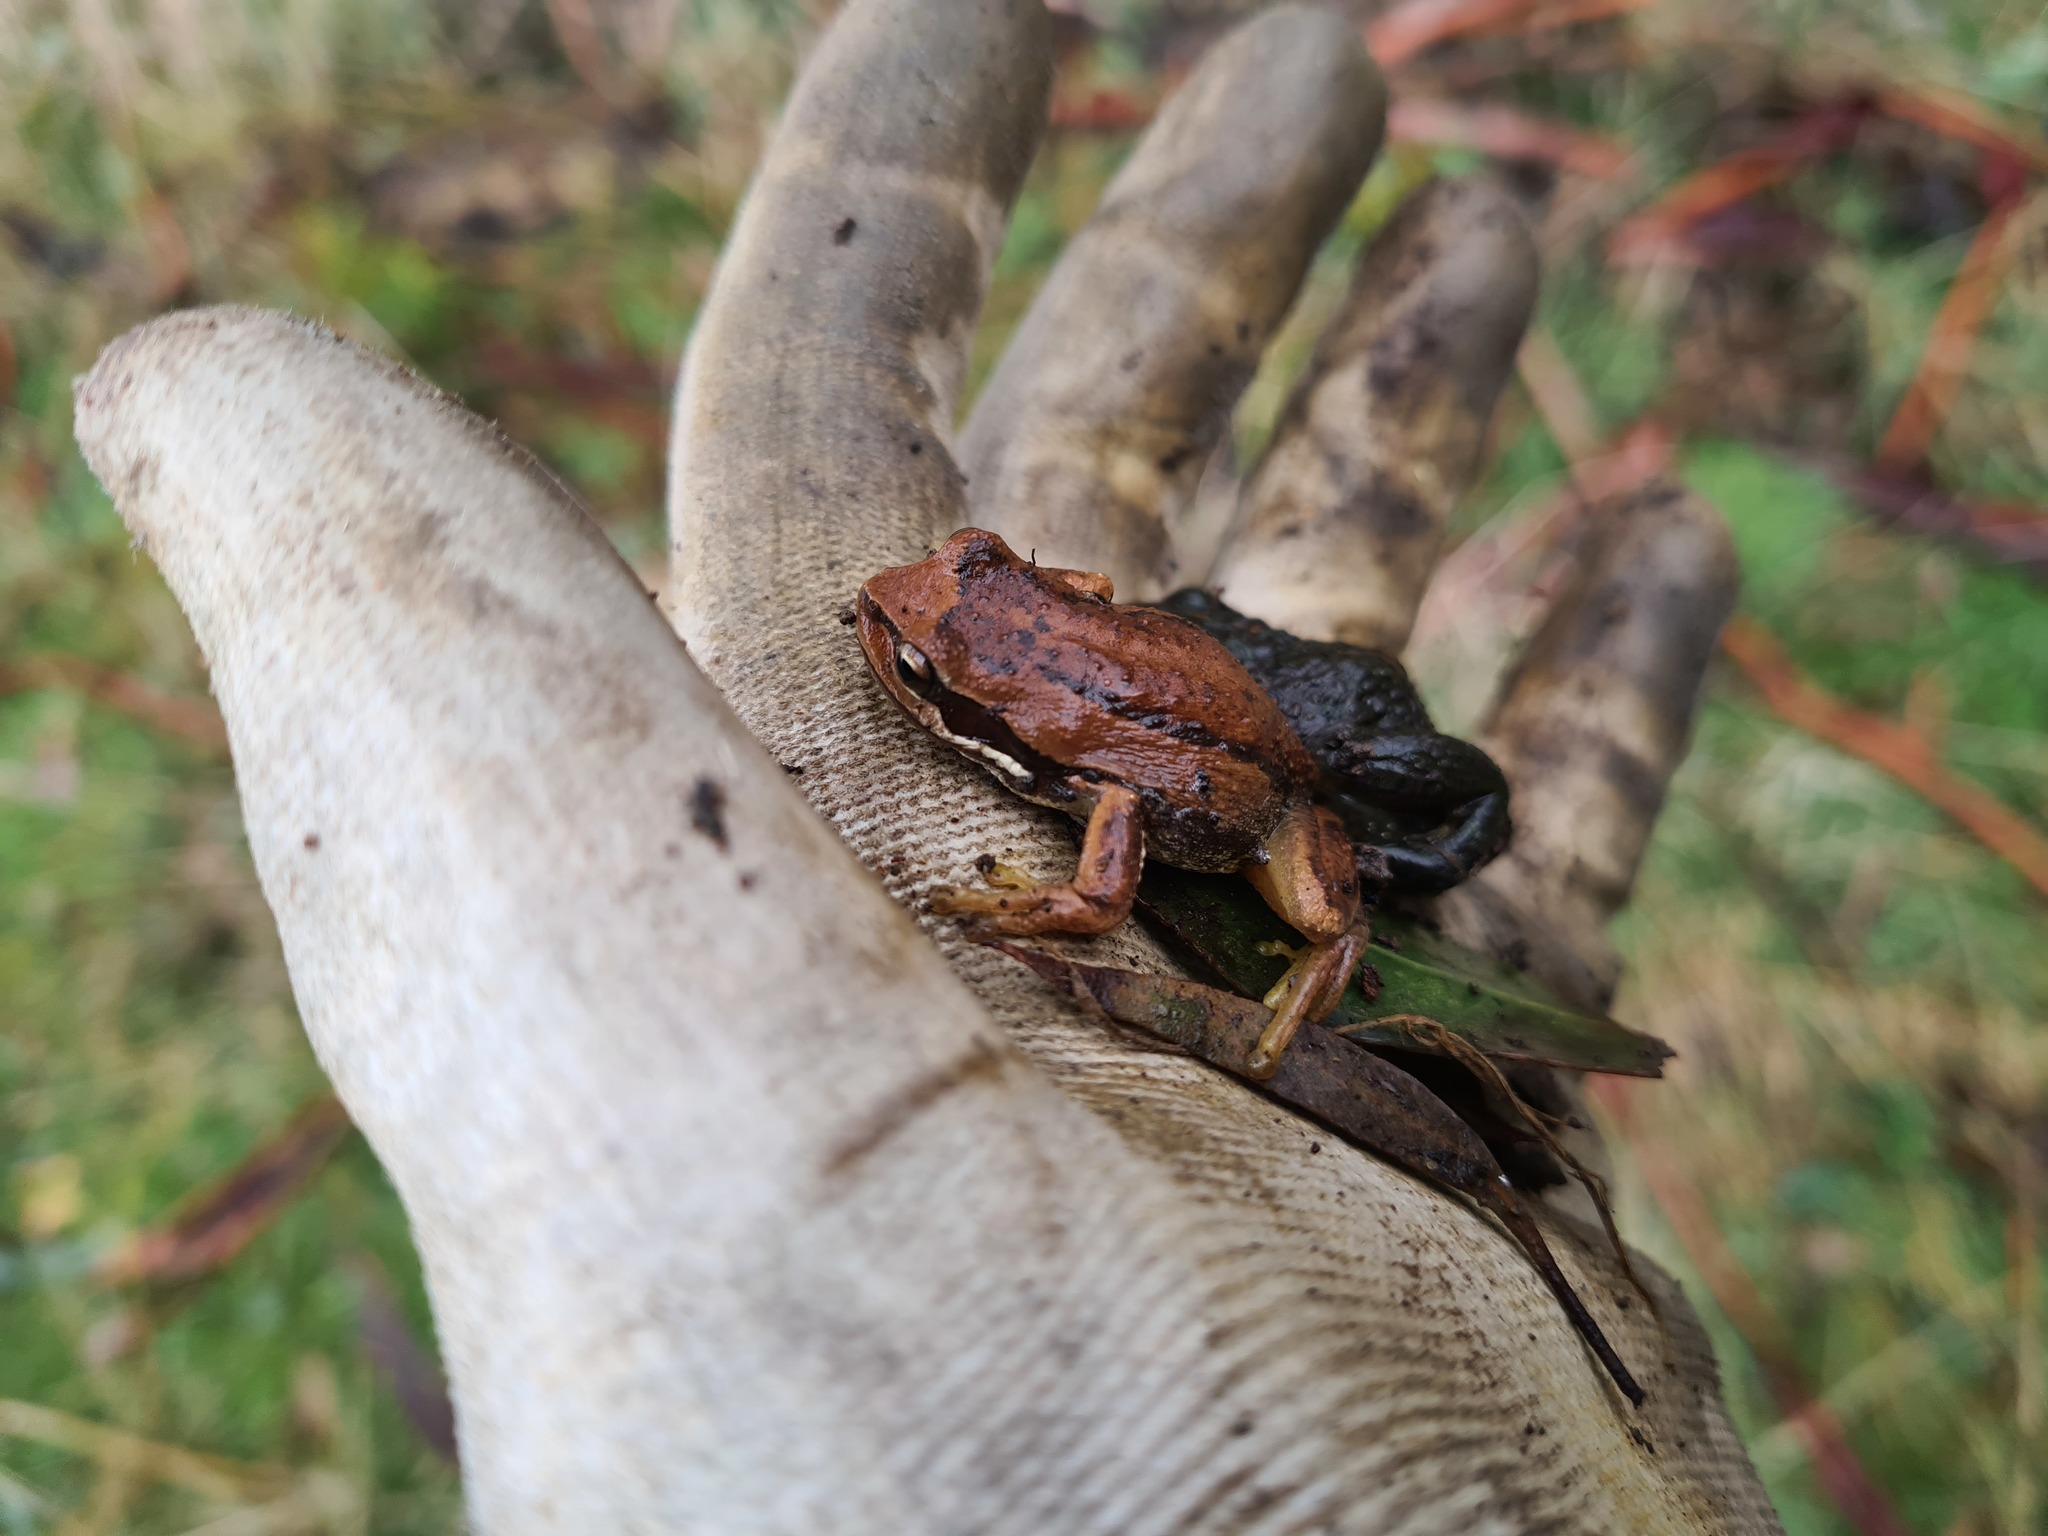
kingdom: Animalia
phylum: Chordata
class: Amphibia
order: Anura
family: Pelodryadidae
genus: Litoria
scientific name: Litoria ewingii
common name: Southern brown tree frog
